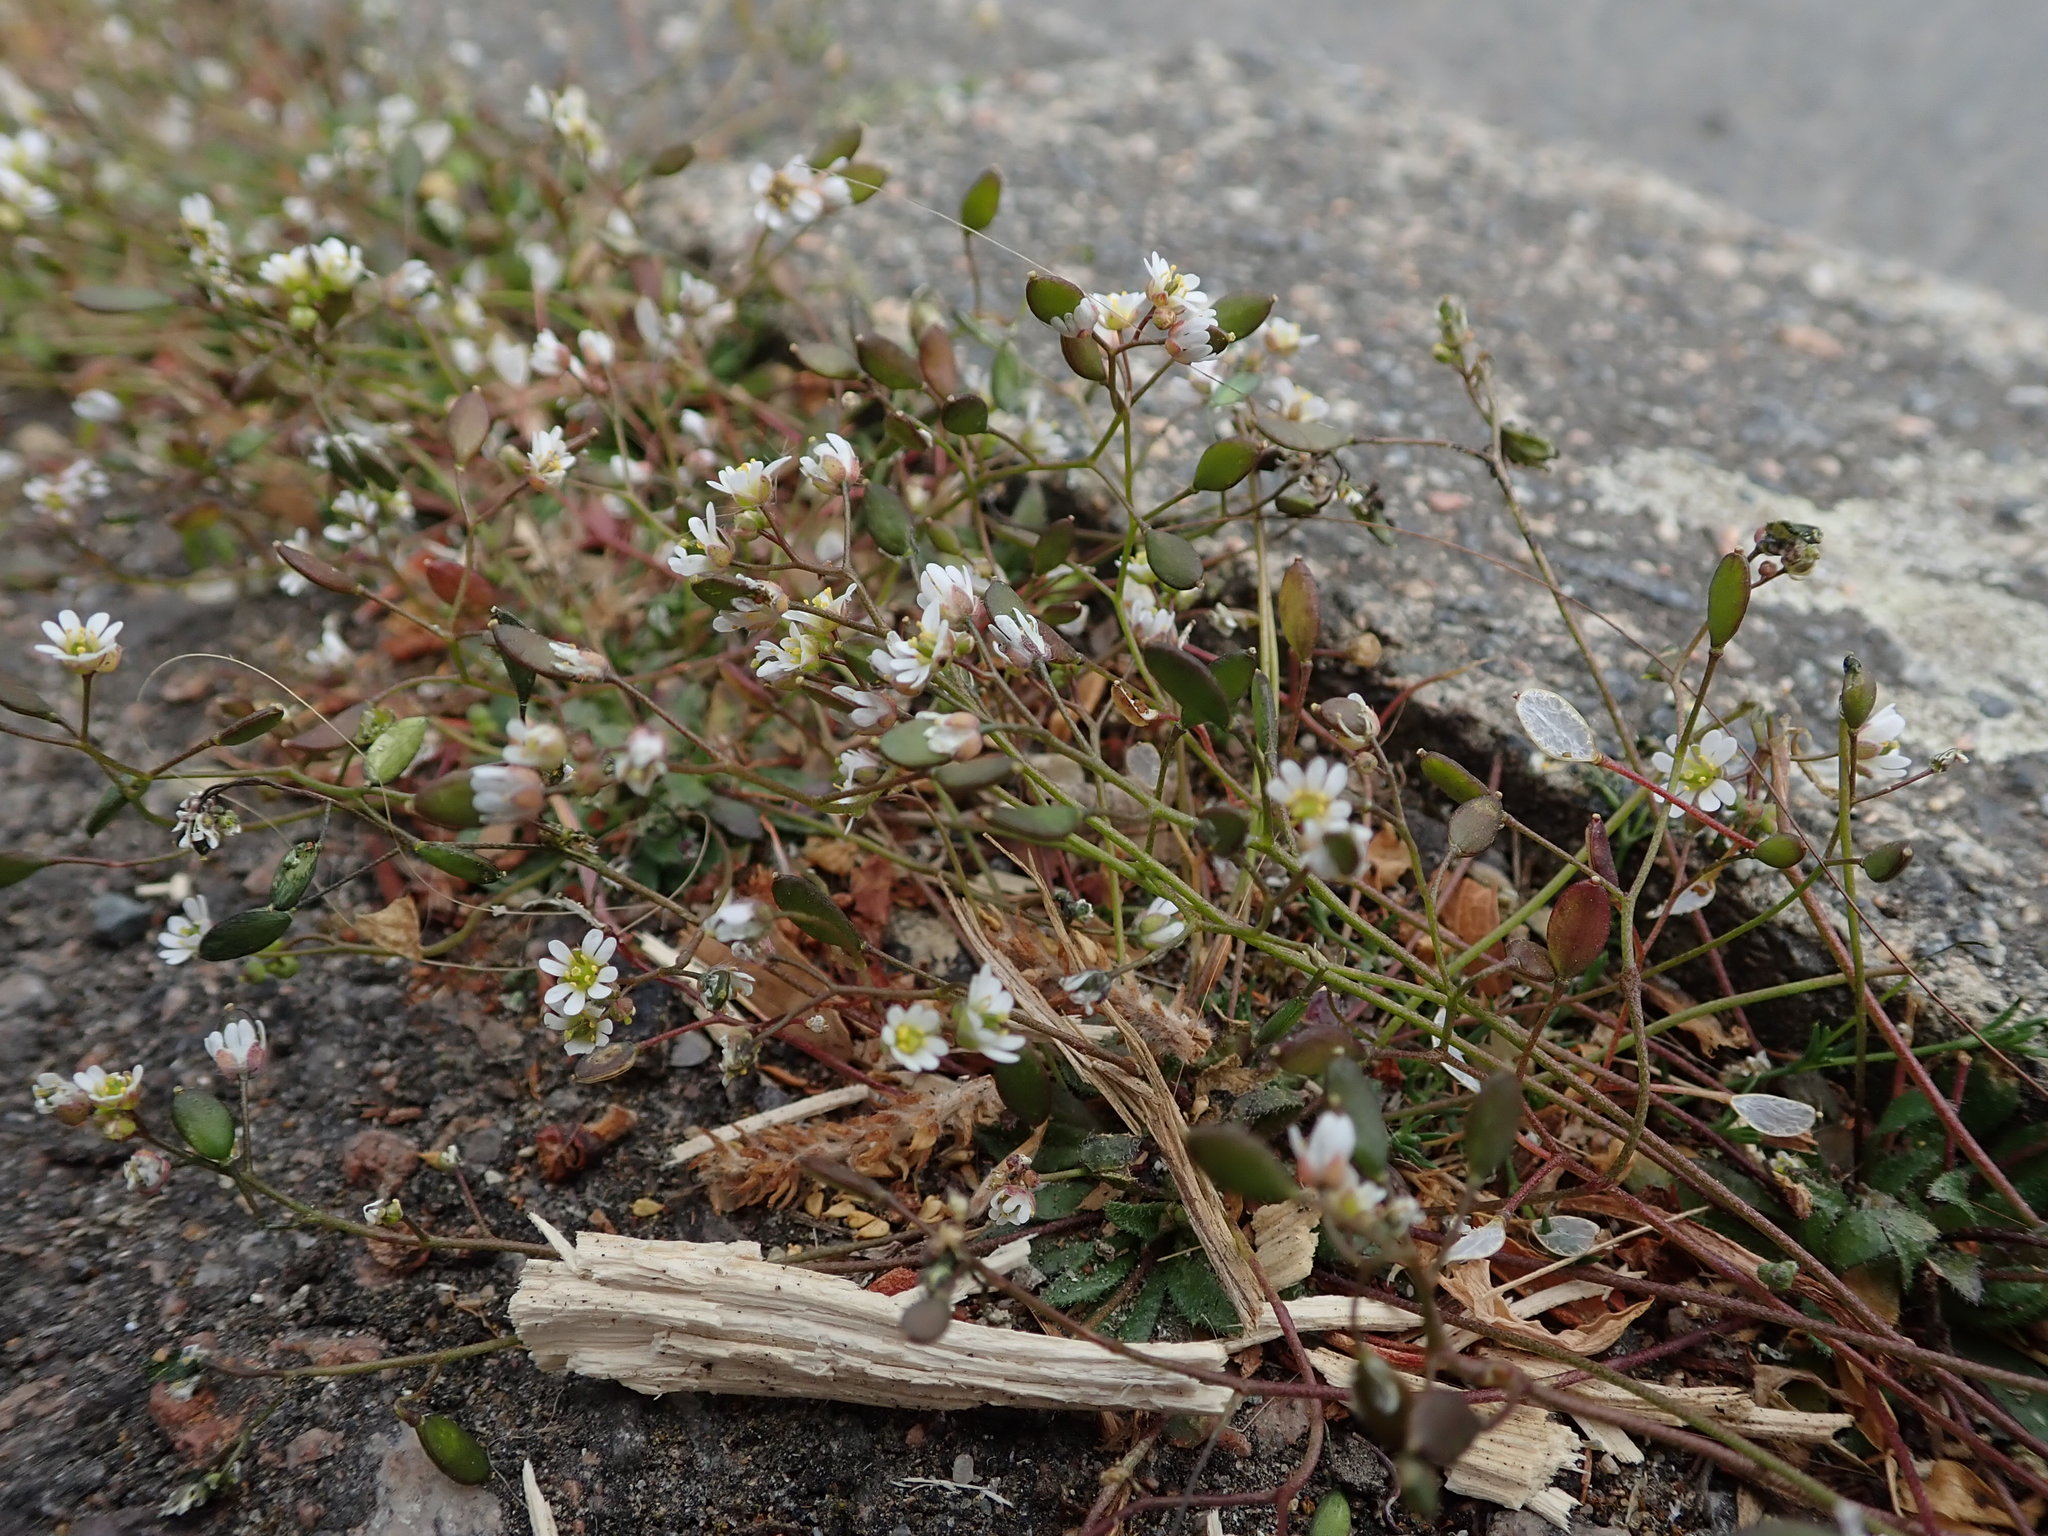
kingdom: Plantae
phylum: Tracheophyta
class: Magnoliopsida
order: Brassicales
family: Brassicaceae
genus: Draba
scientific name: Draba verna
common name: Spring draba
